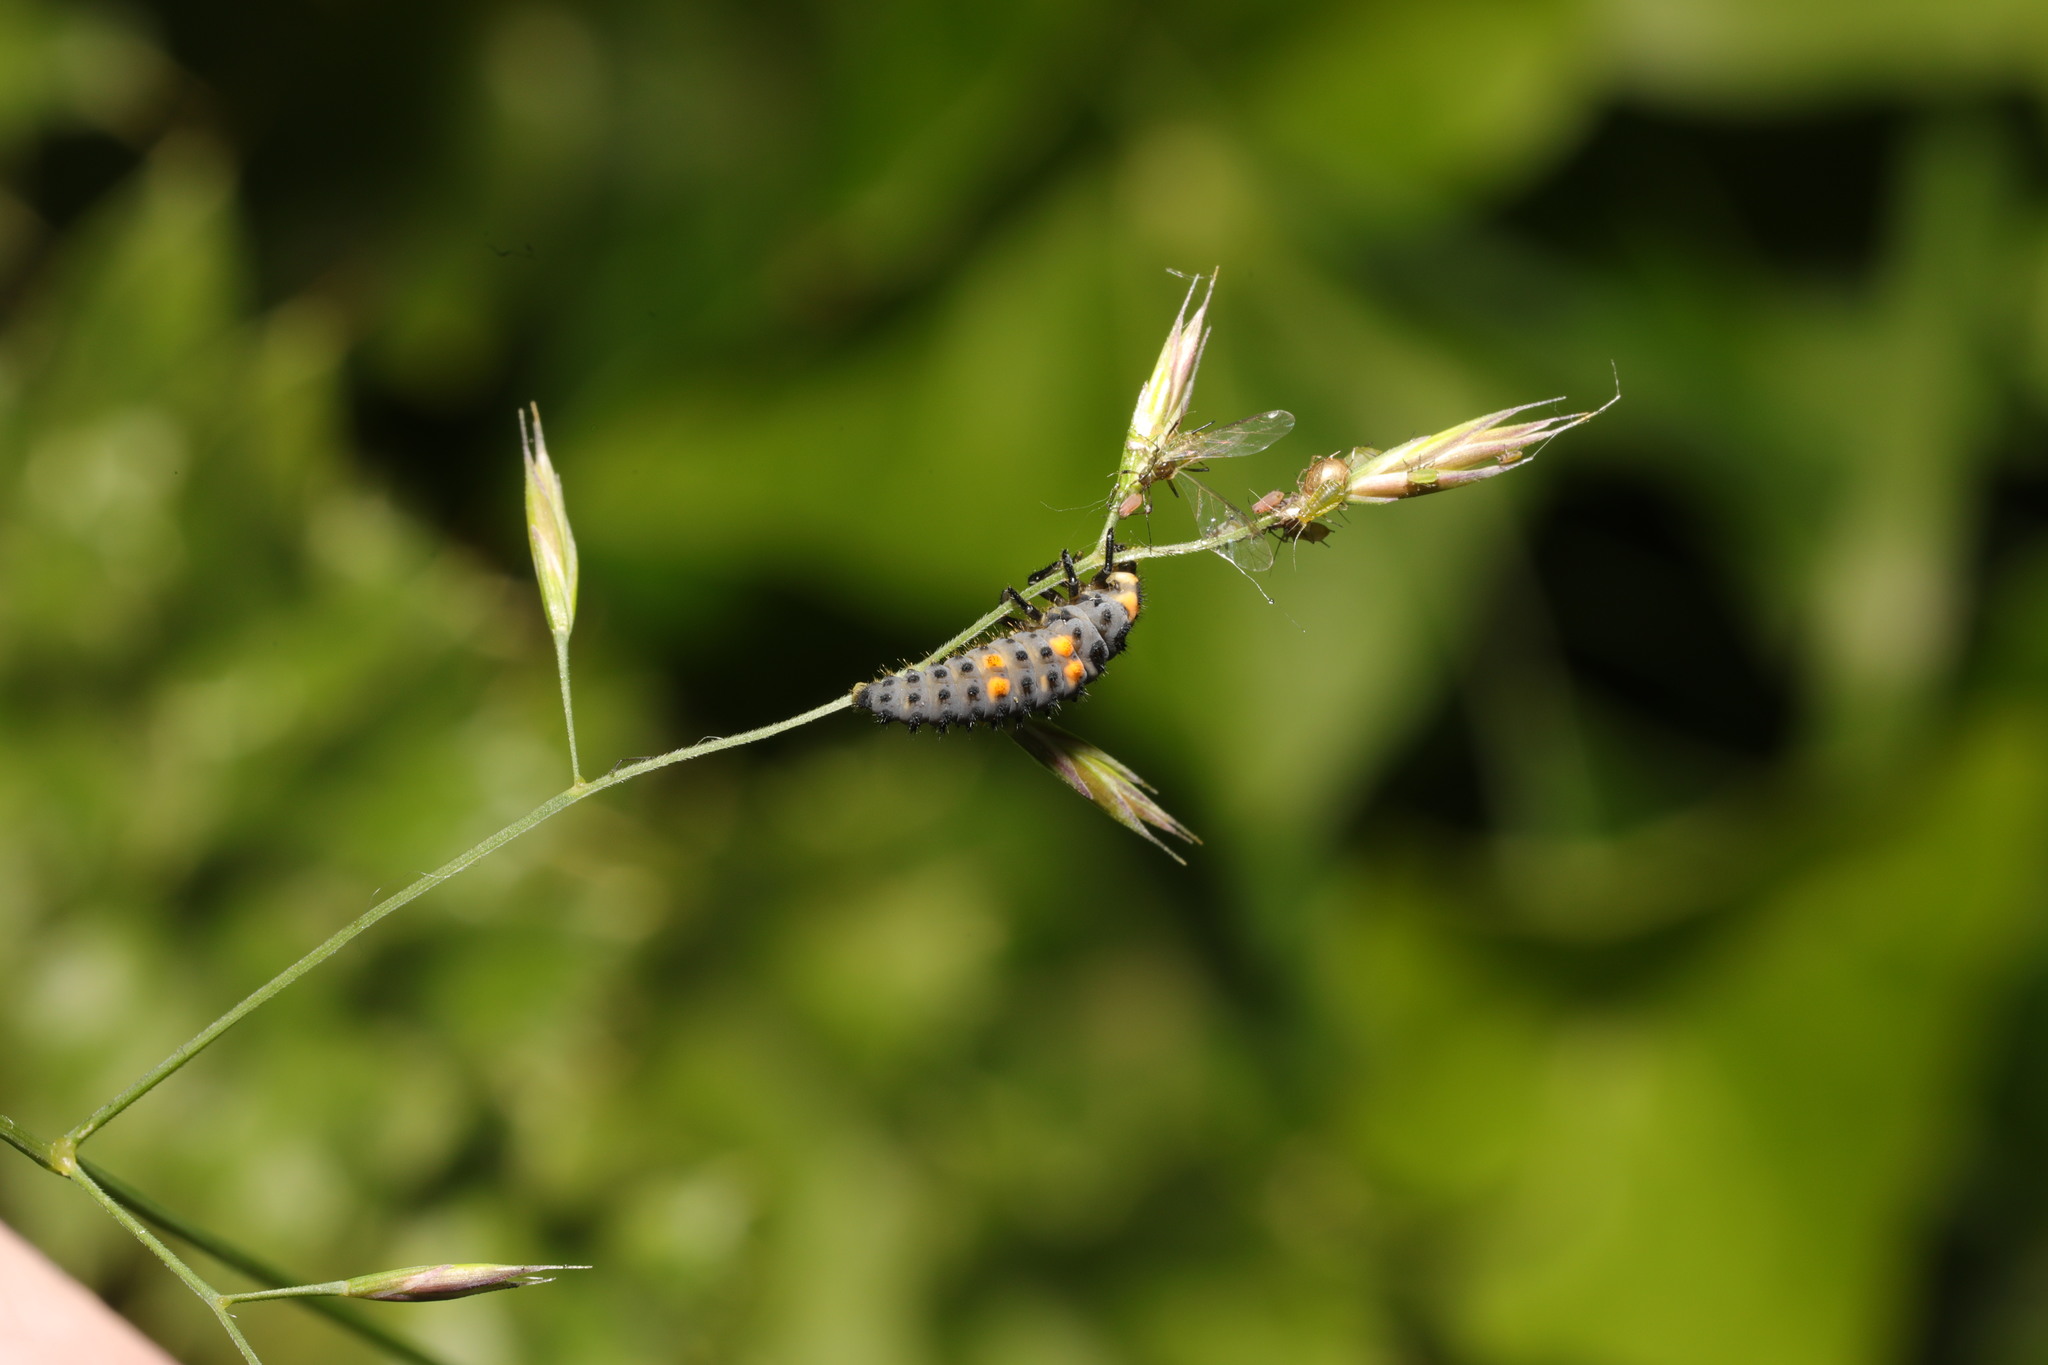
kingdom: Animalia
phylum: Arthropoda
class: Insecta
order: Coleoptera
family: Coccinellidae
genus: Coccinella
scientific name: Coccinella septempunctata
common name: Sevenspotted lady beetle
